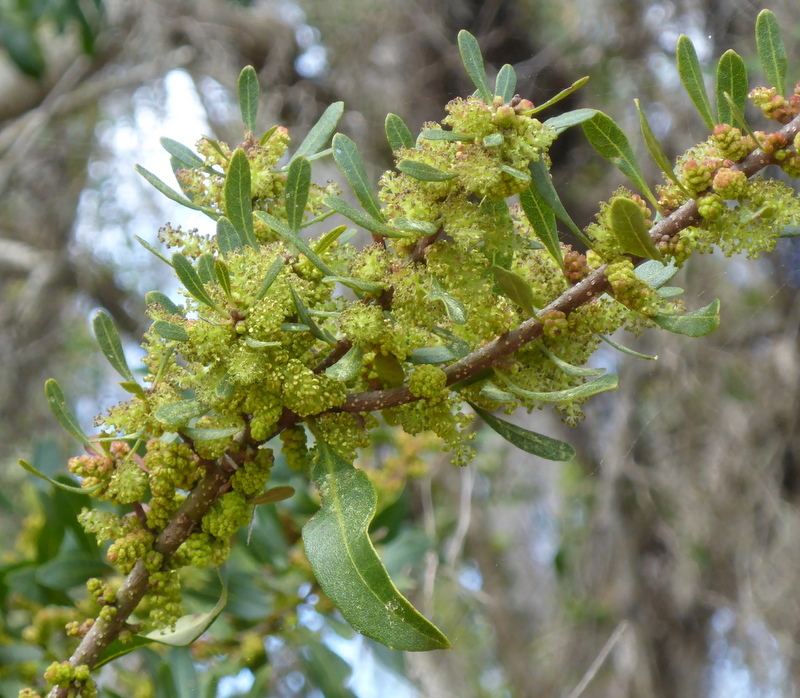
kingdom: Plantae
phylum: Tracheophyta
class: Magnoliopsida
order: Fagales
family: Myricaceae
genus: Morella
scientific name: Morella cerifera
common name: Wax myrtle
